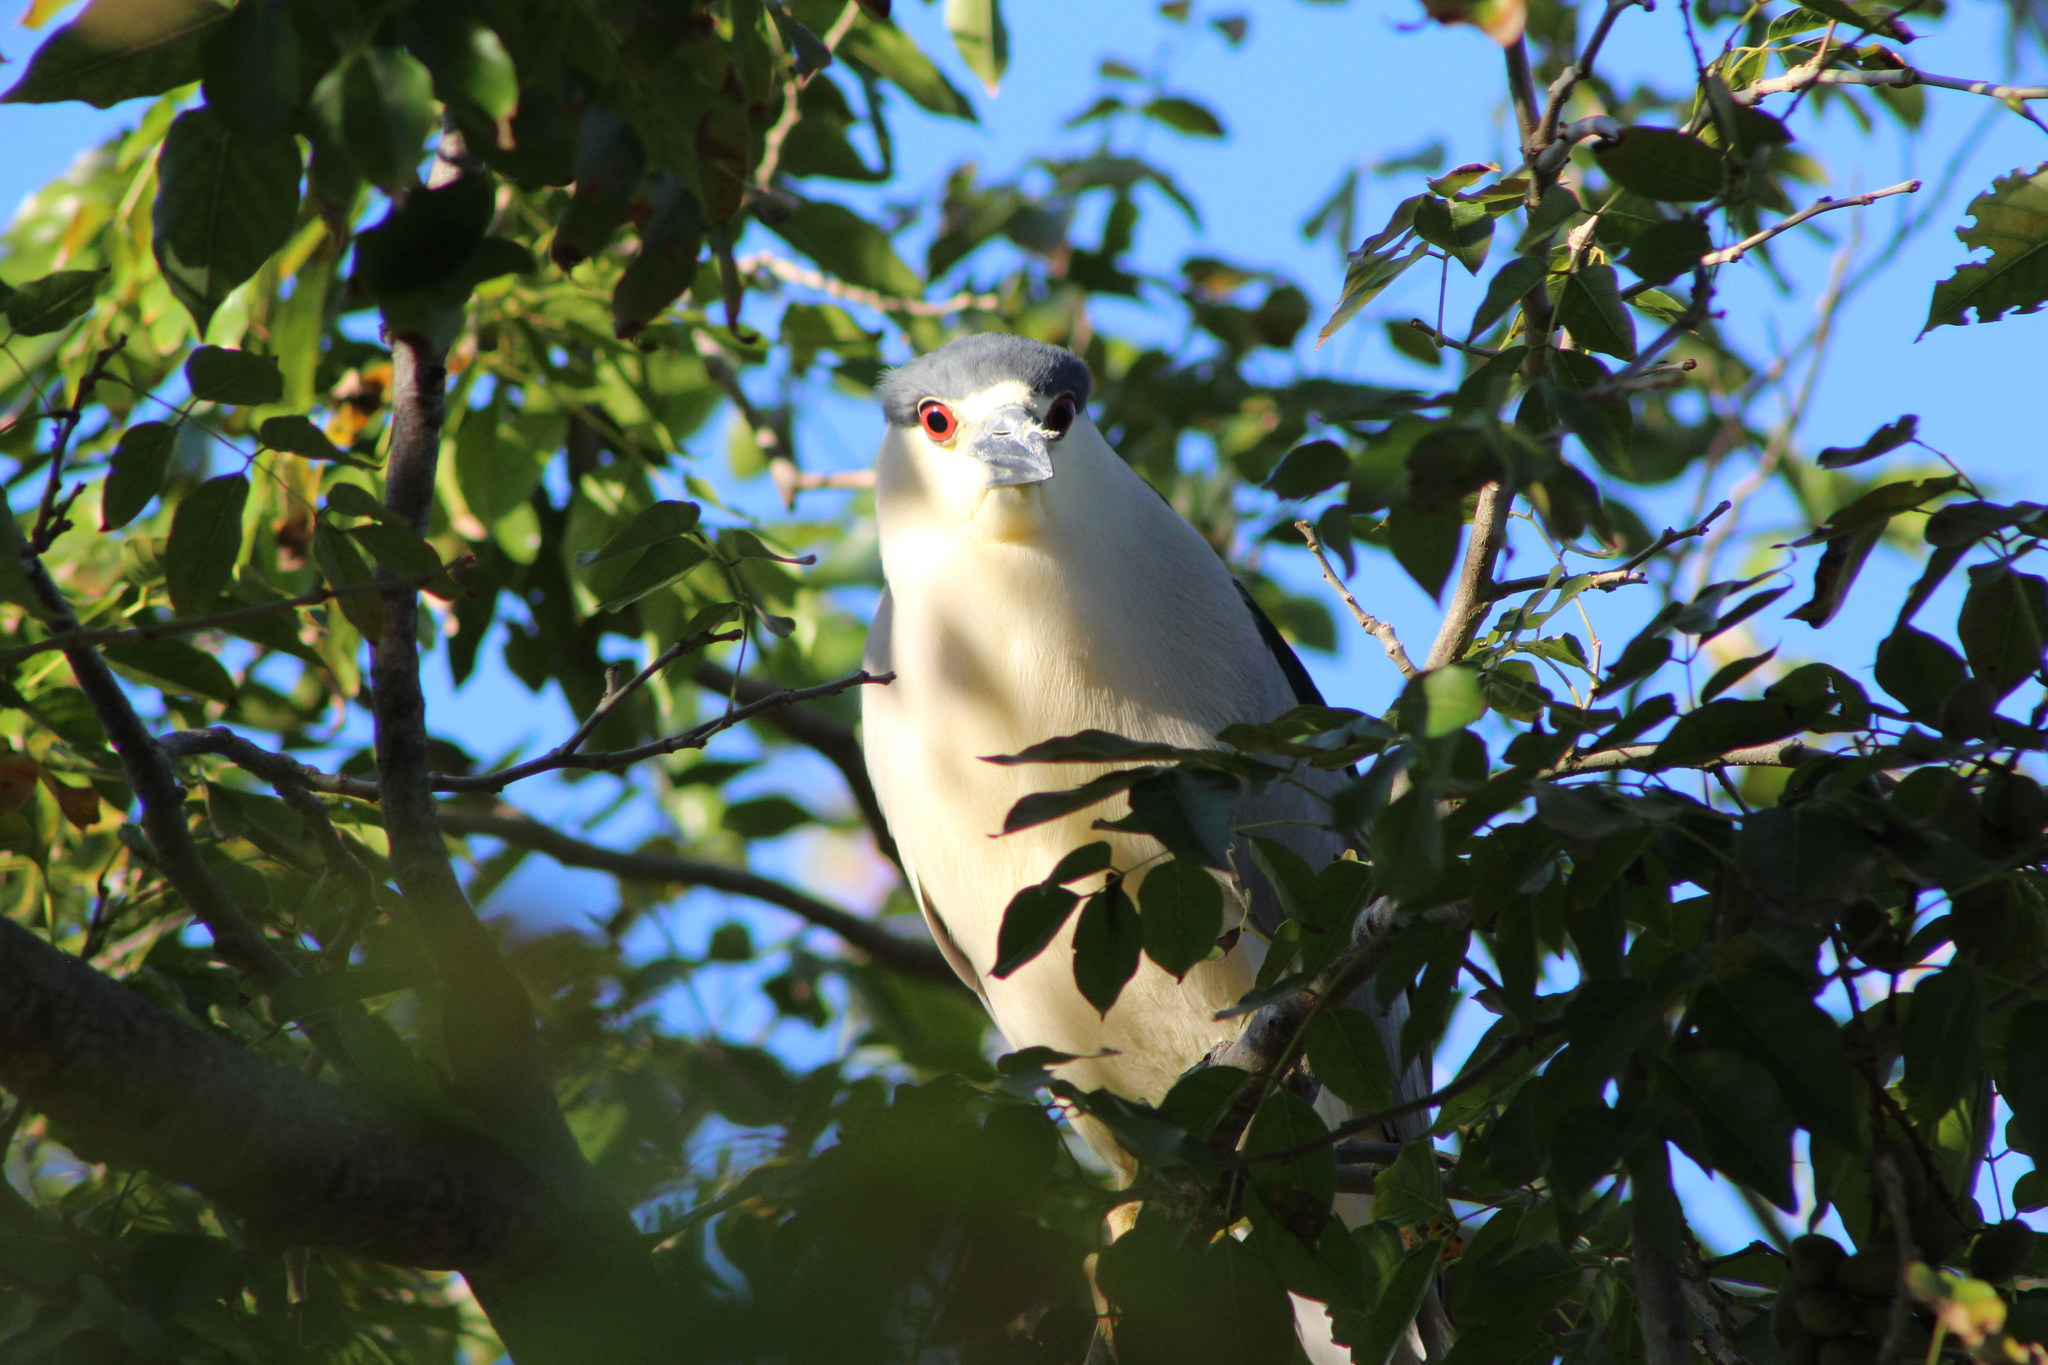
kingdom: Animalia
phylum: Chordata
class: Aves
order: Pelecaniformes
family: Ardeidae
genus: Nycticorax
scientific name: Nycticorax nycticorax
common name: Black-crowned night heron
